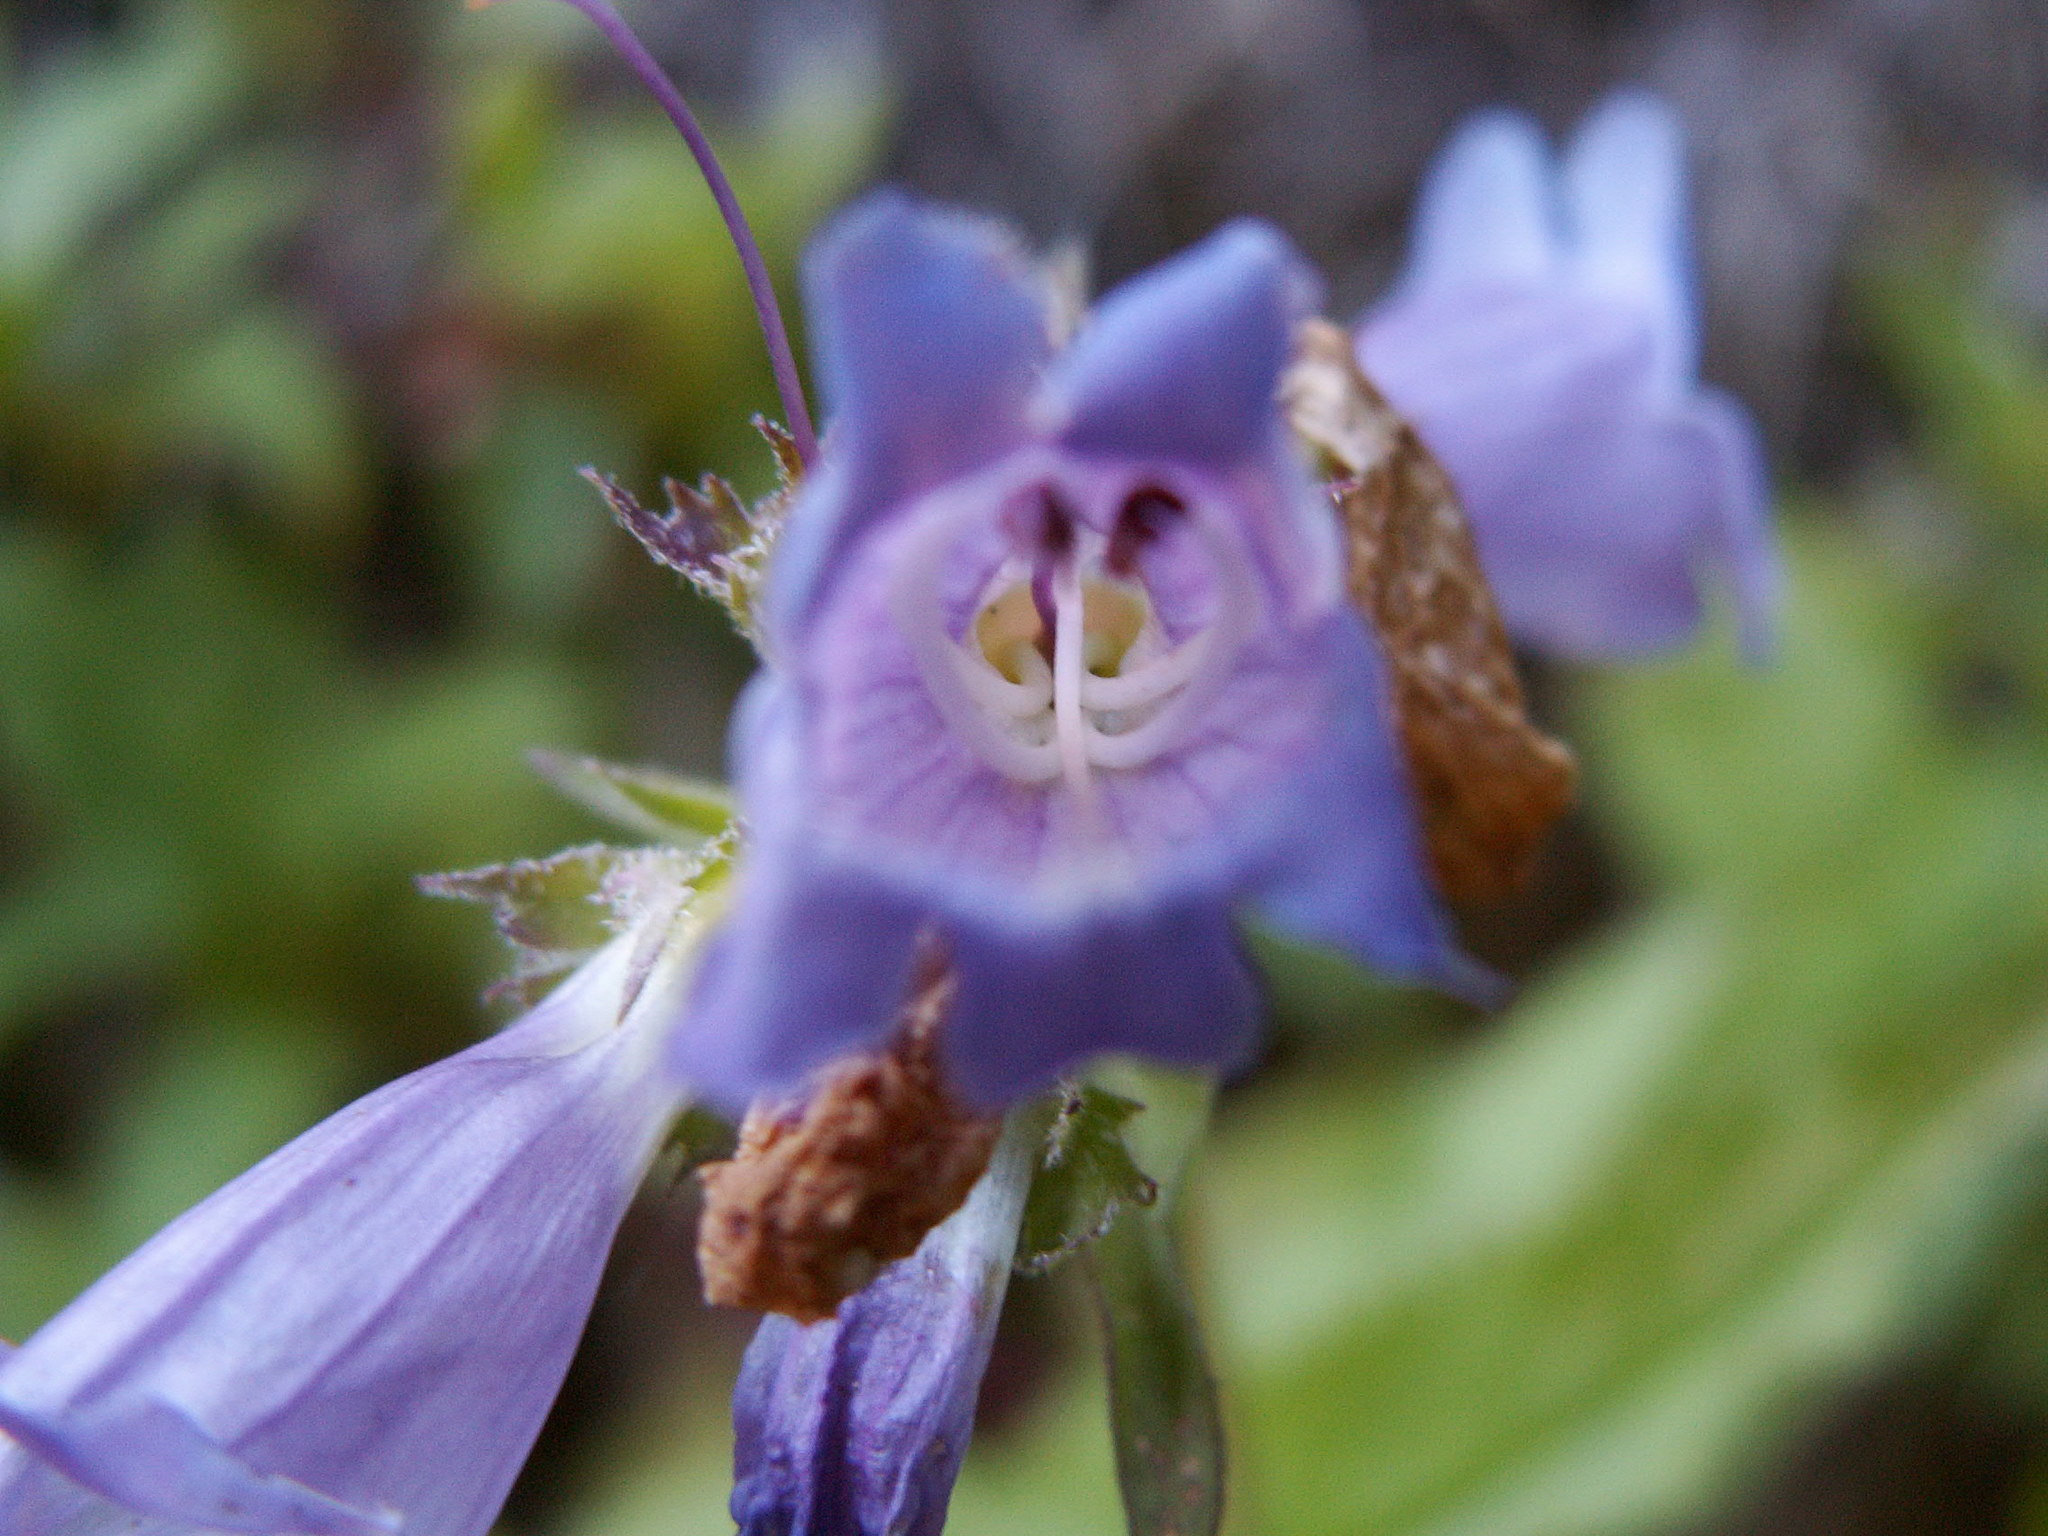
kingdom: Plantae
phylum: Tracheophyta
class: Magnoliopsida
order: Lamiales
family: Plantaginaceae
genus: Nothochelone
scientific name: Nothochelone nemorosa
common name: Woodland beardtongue
